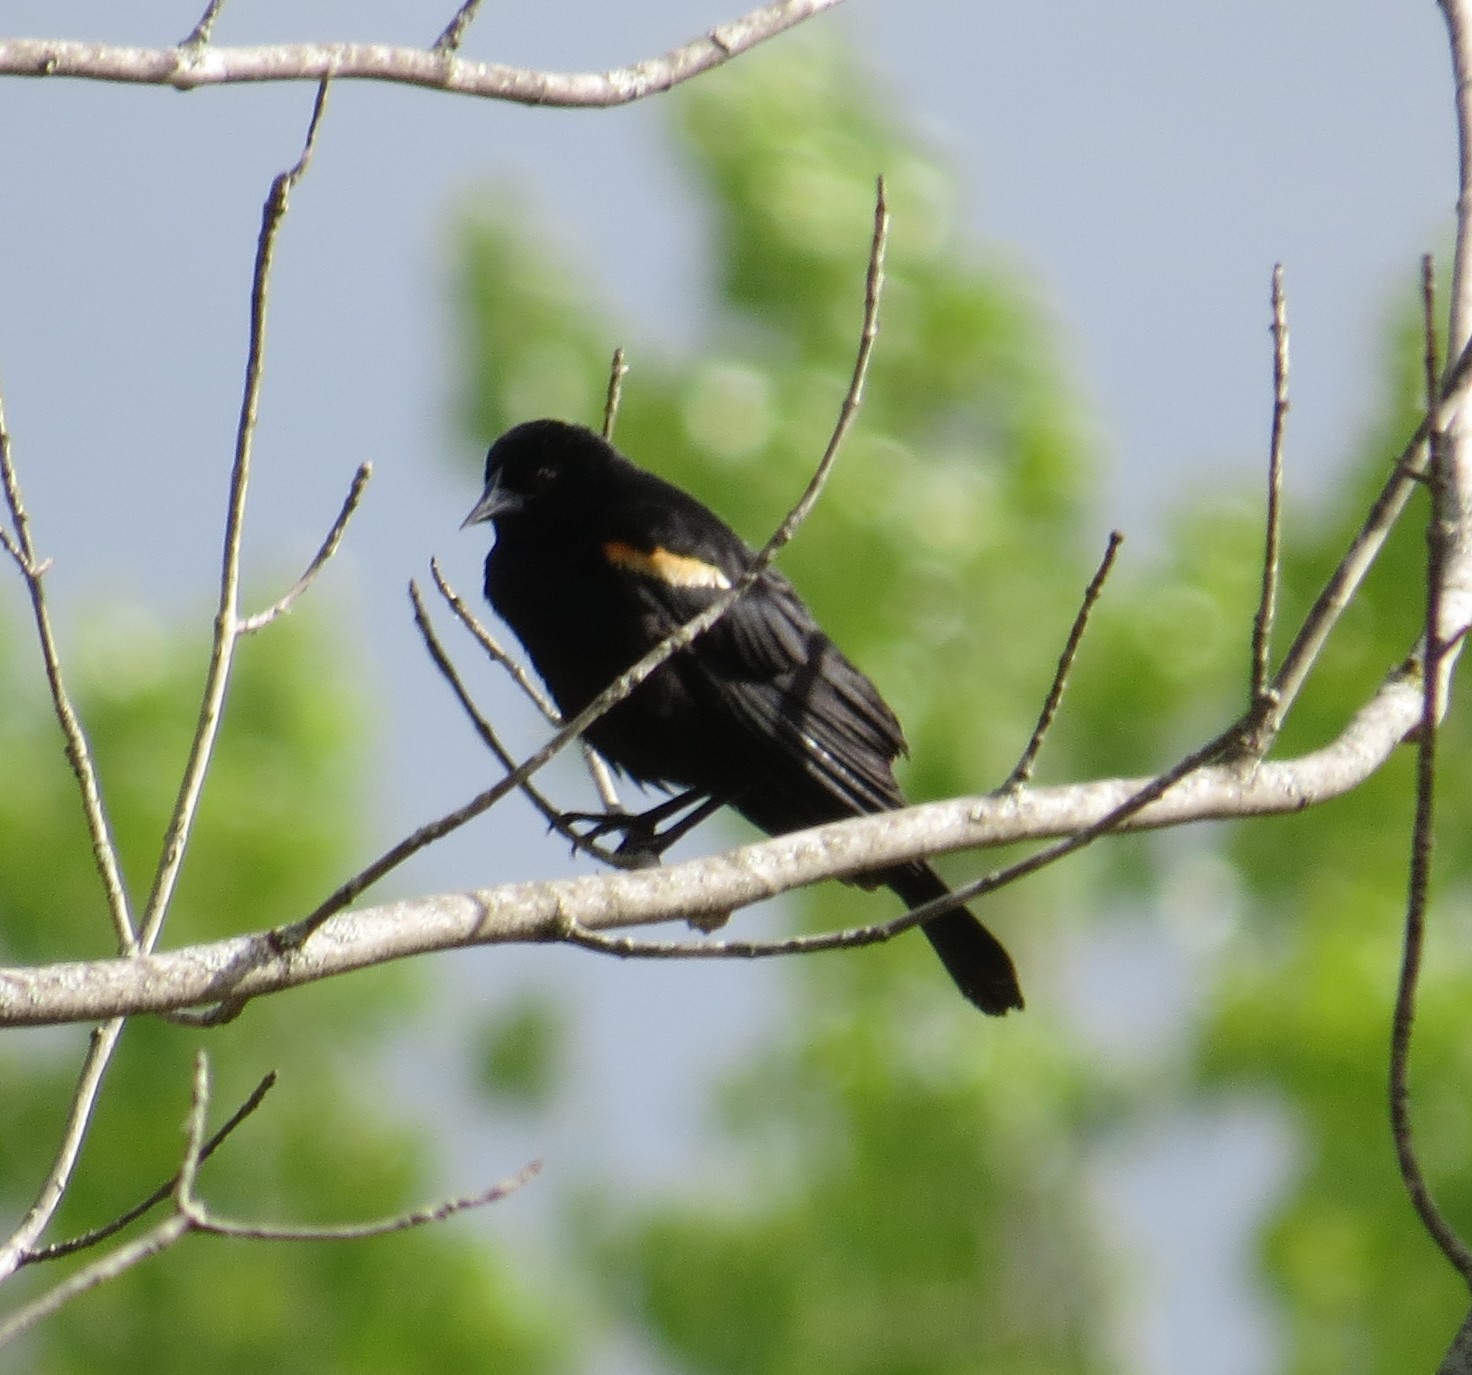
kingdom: Animalia
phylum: Chordata
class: Aves
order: Passeriformes
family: Icteridae
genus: Agelaius
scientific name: Agelaius phoeniceus
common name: Red-winged blackbird
